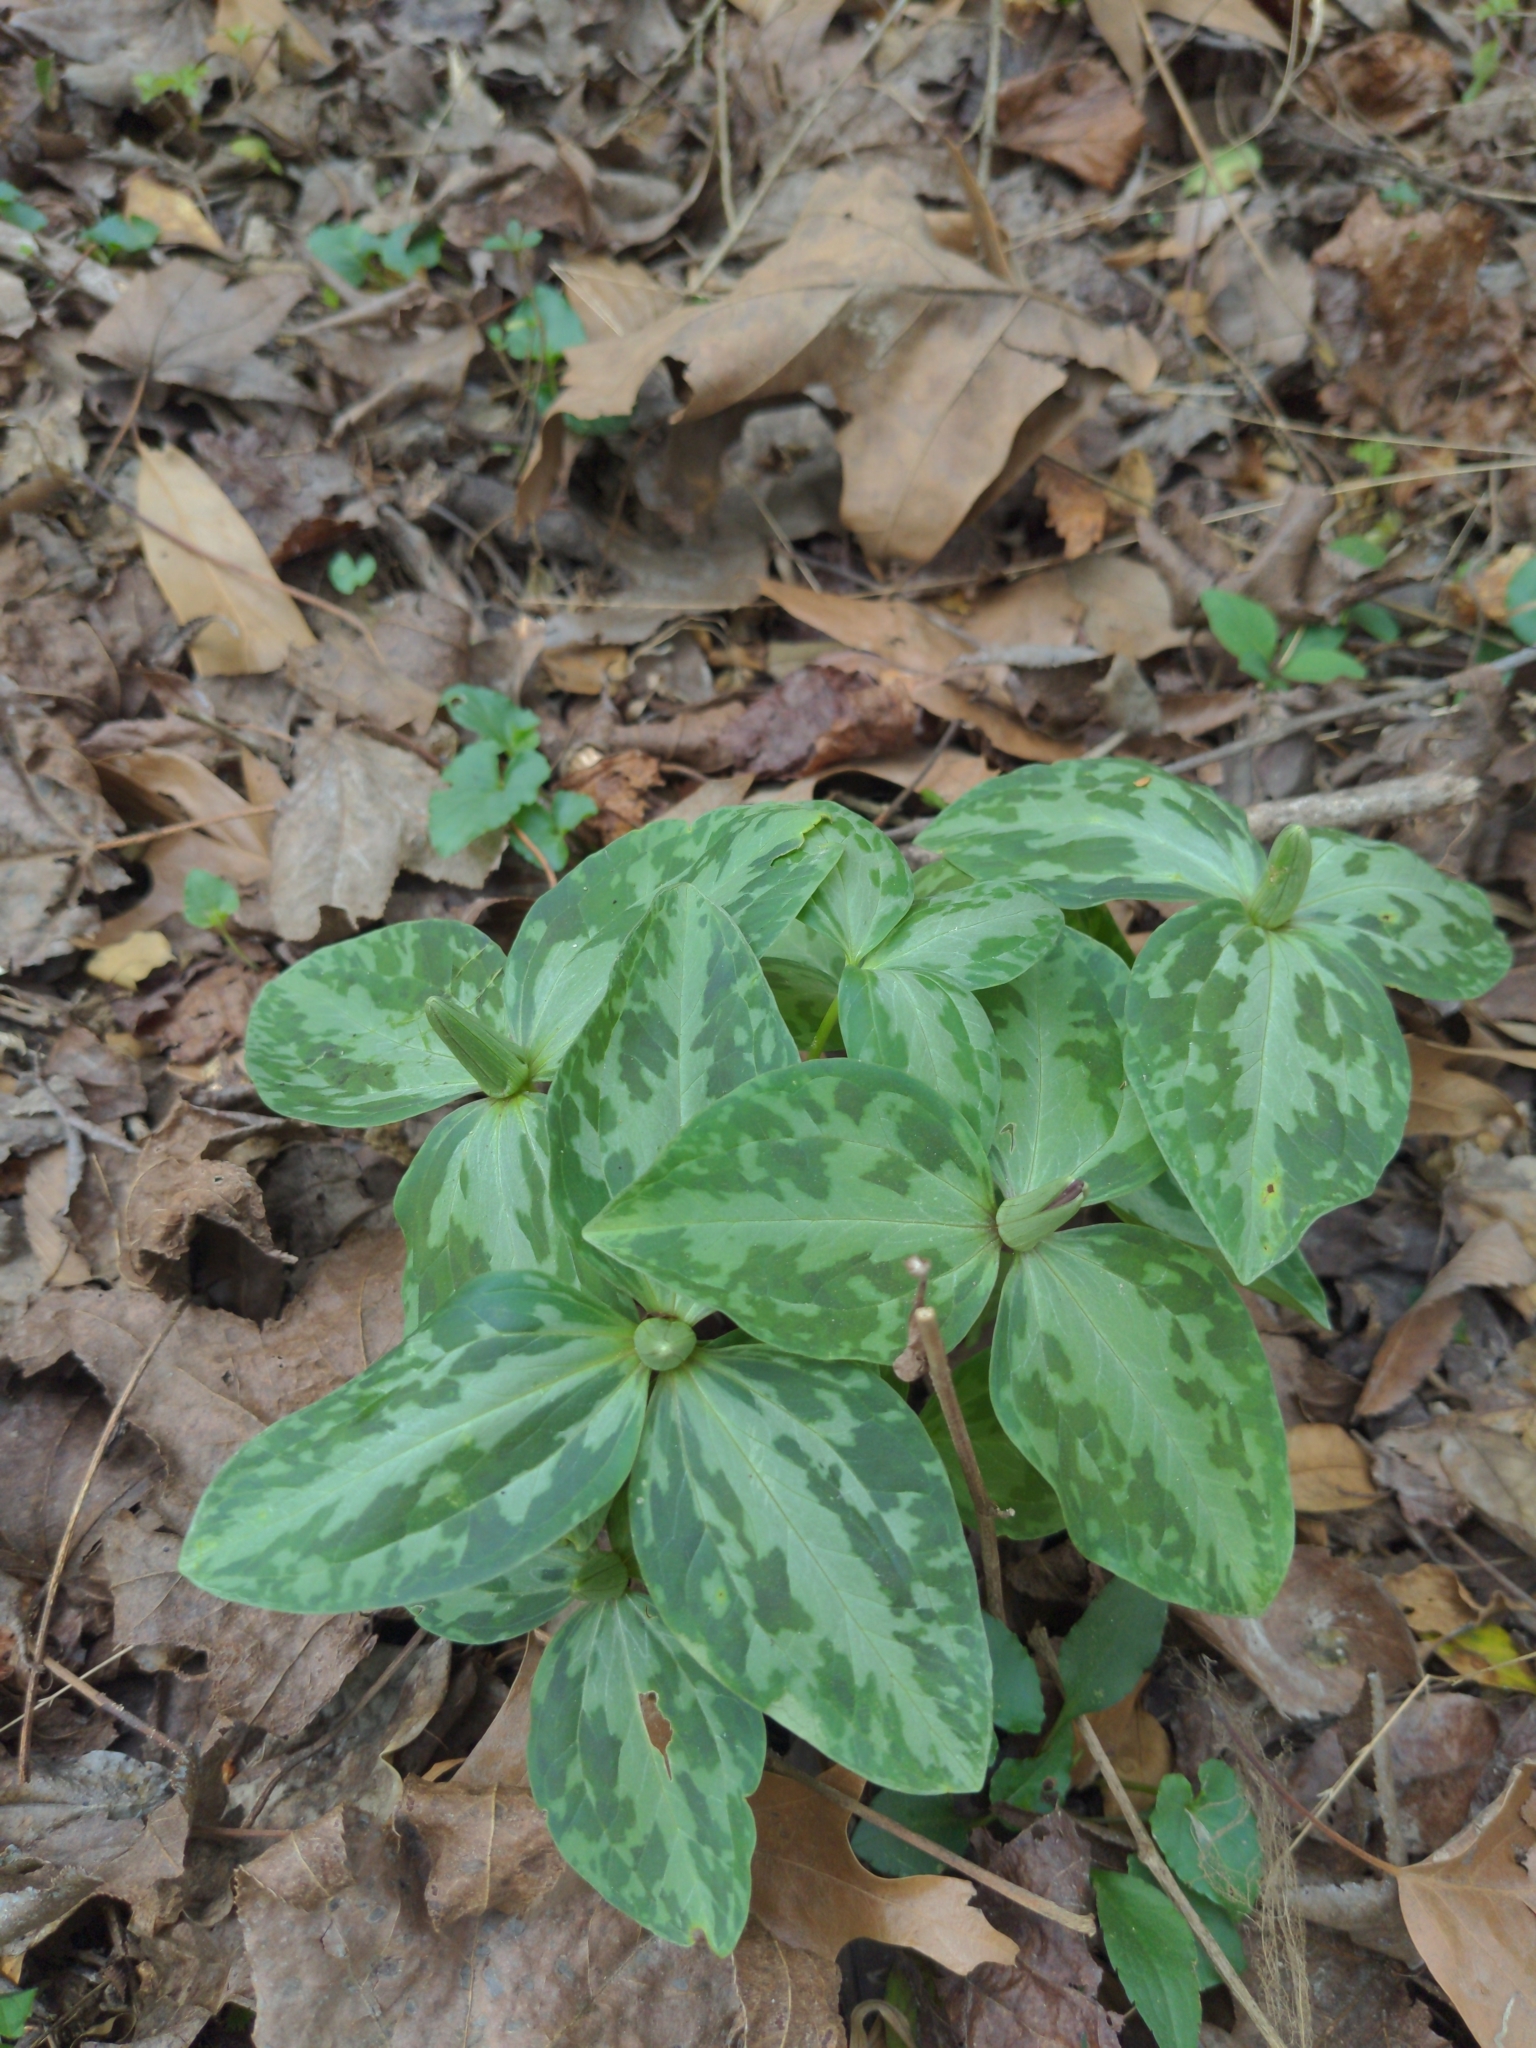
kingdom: Plantae
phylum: Tracheophyta
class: Liliopsida
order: Liliales
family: Melanthiaceae
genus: Trillium
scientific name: Trillium foetidissimum
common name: Mississippi river trillium
